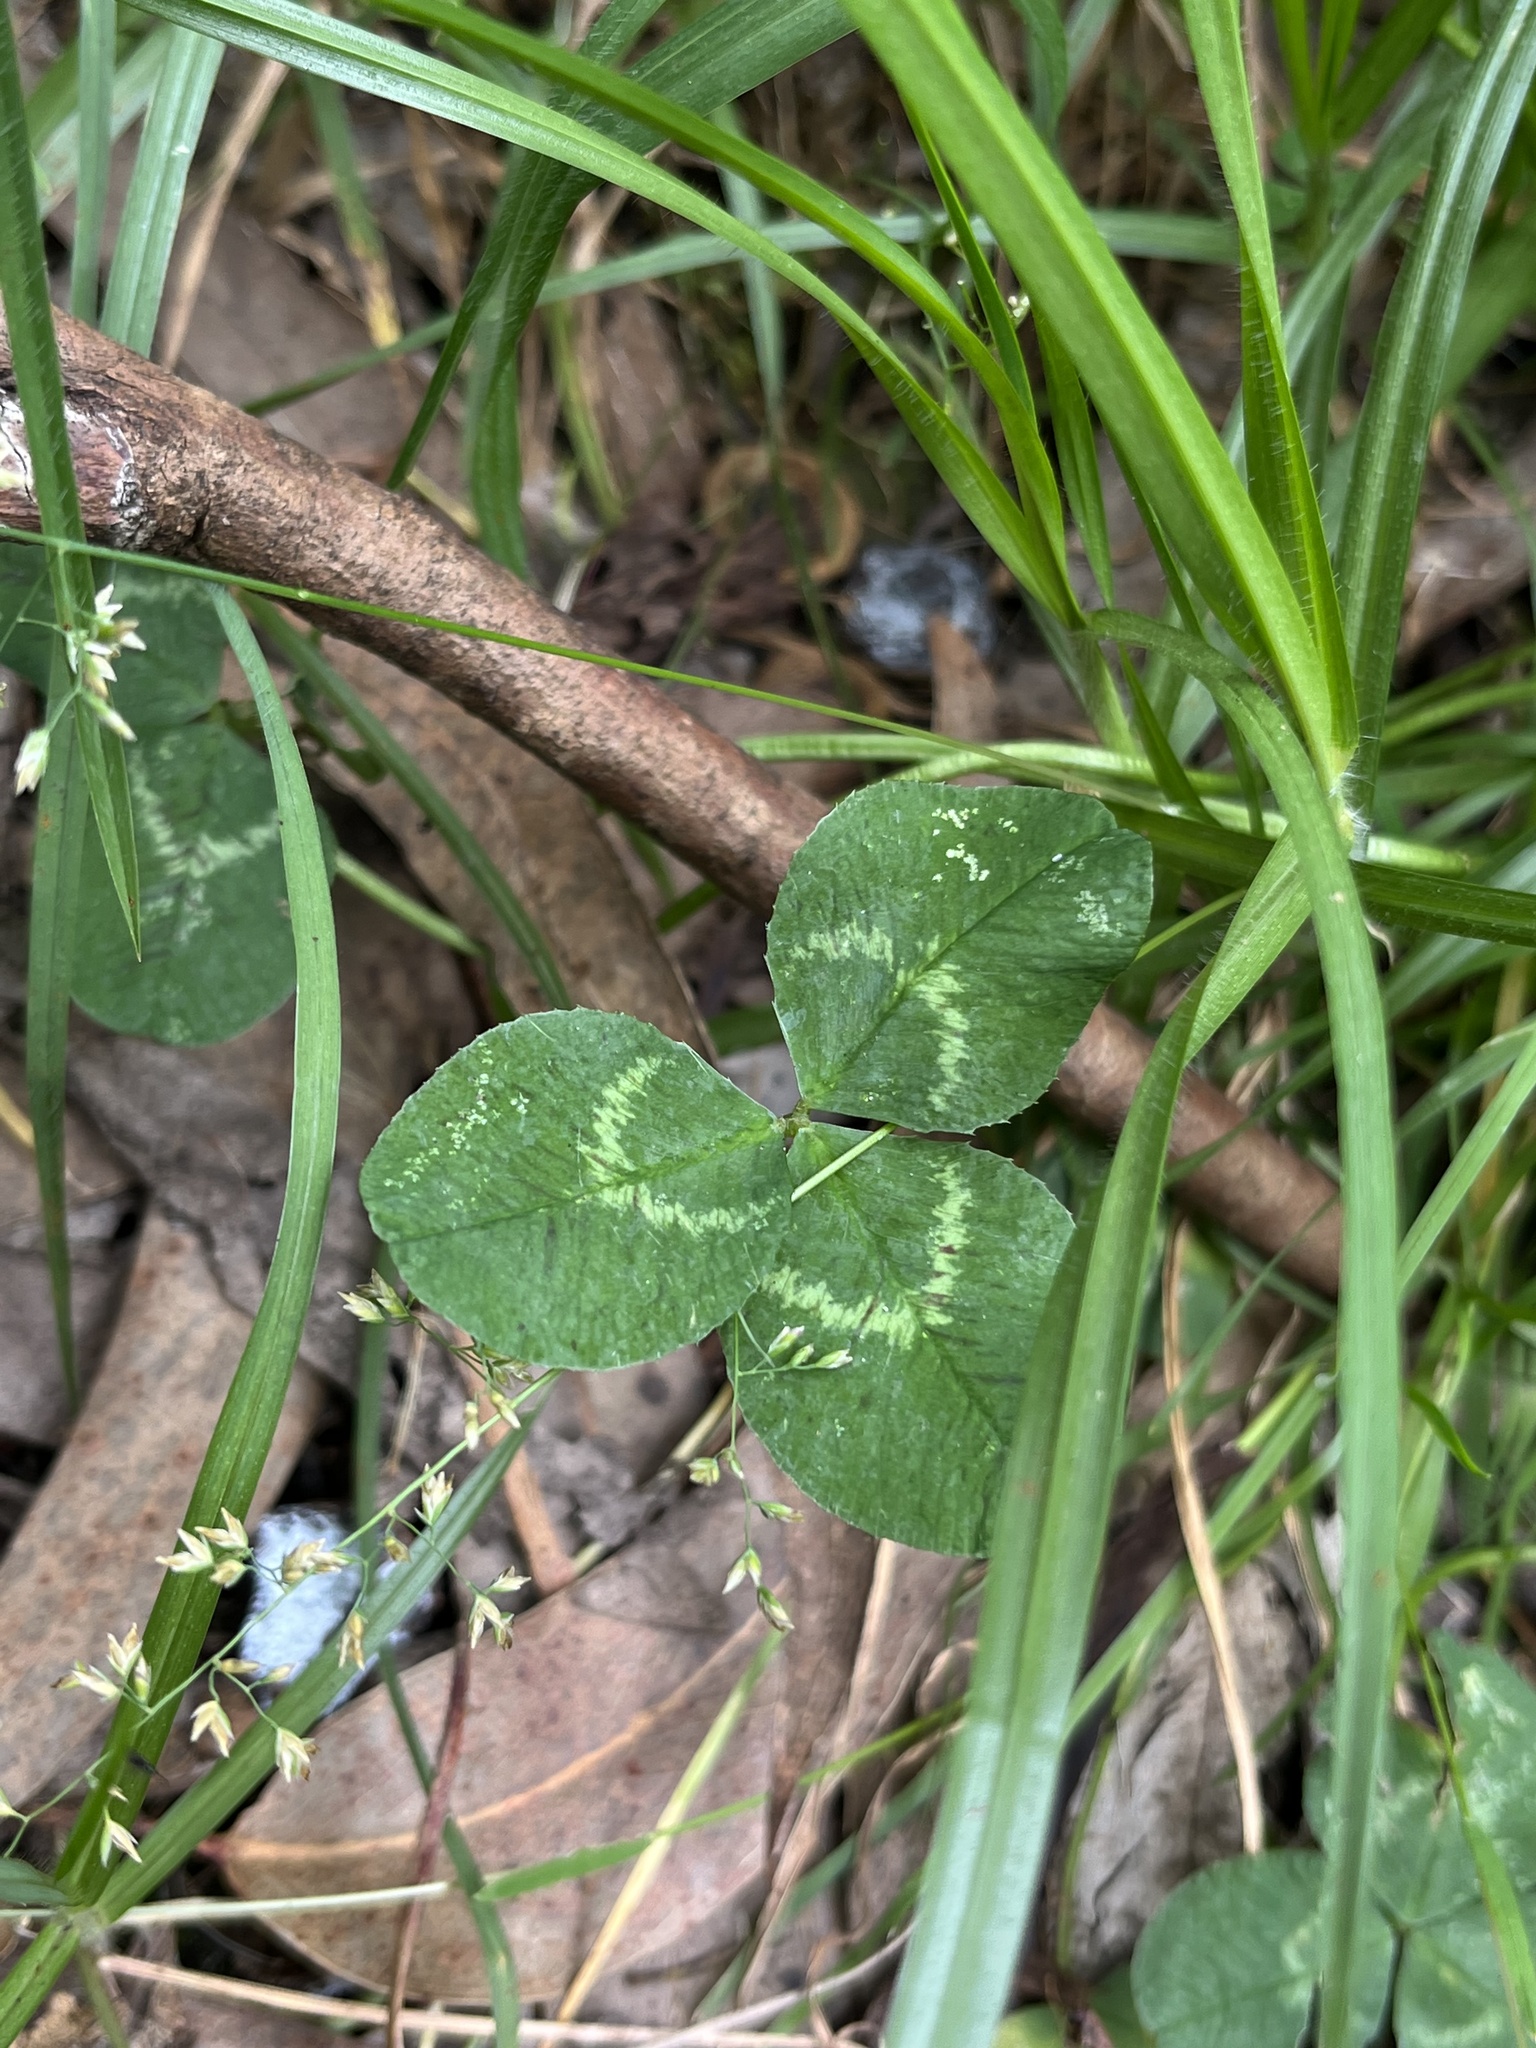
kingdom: Plantae
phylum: Tracheophyta
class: Magnoliopsida
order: Fabales
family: Fabaceae
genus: Trifolium
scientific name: Trifolium repens
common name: White clover
